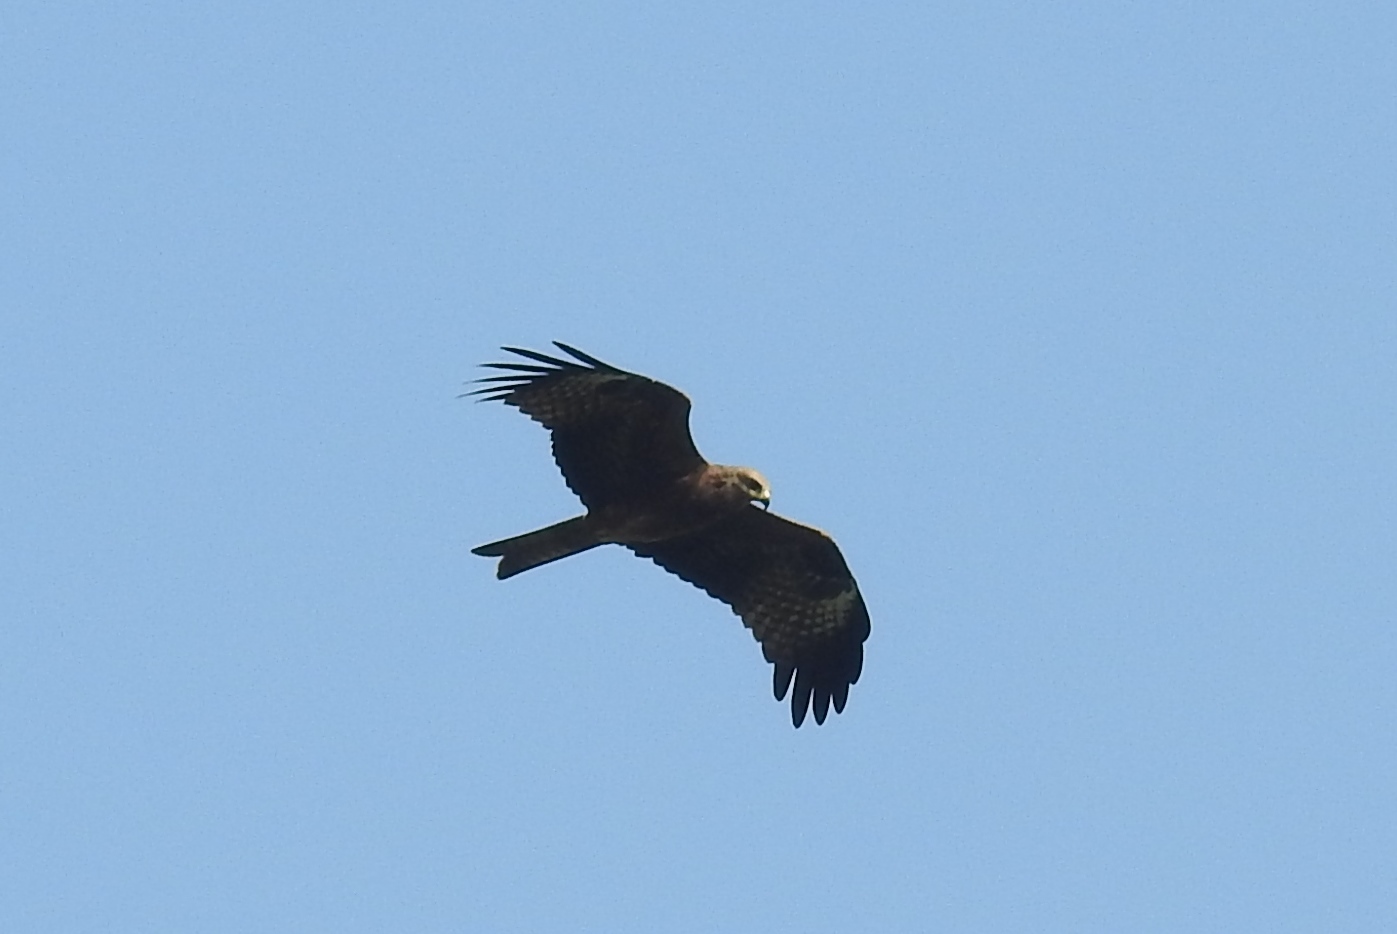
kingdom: Animalia
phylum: Chordata
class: Aves
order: Accipitriformes
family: Accipitridae
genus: Milvus
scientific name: Milvus migrans
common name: Black kite
